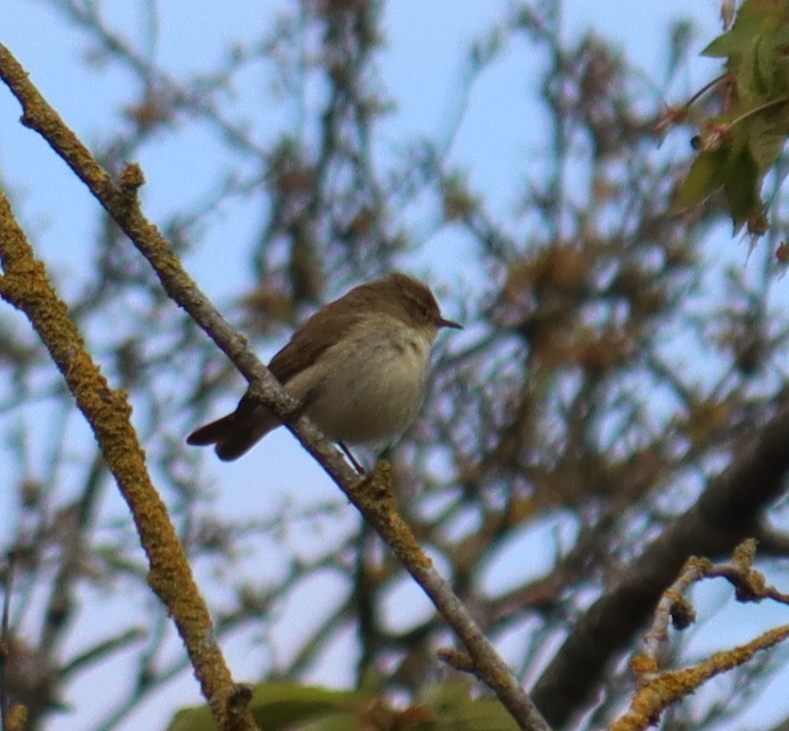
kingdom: Animalia
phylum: Chordata
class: Aves
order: Passeriformes
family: Phylloscopidae
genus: Phylloscopus
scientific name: Phylloscopus collybita
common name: Common chiffchaff
